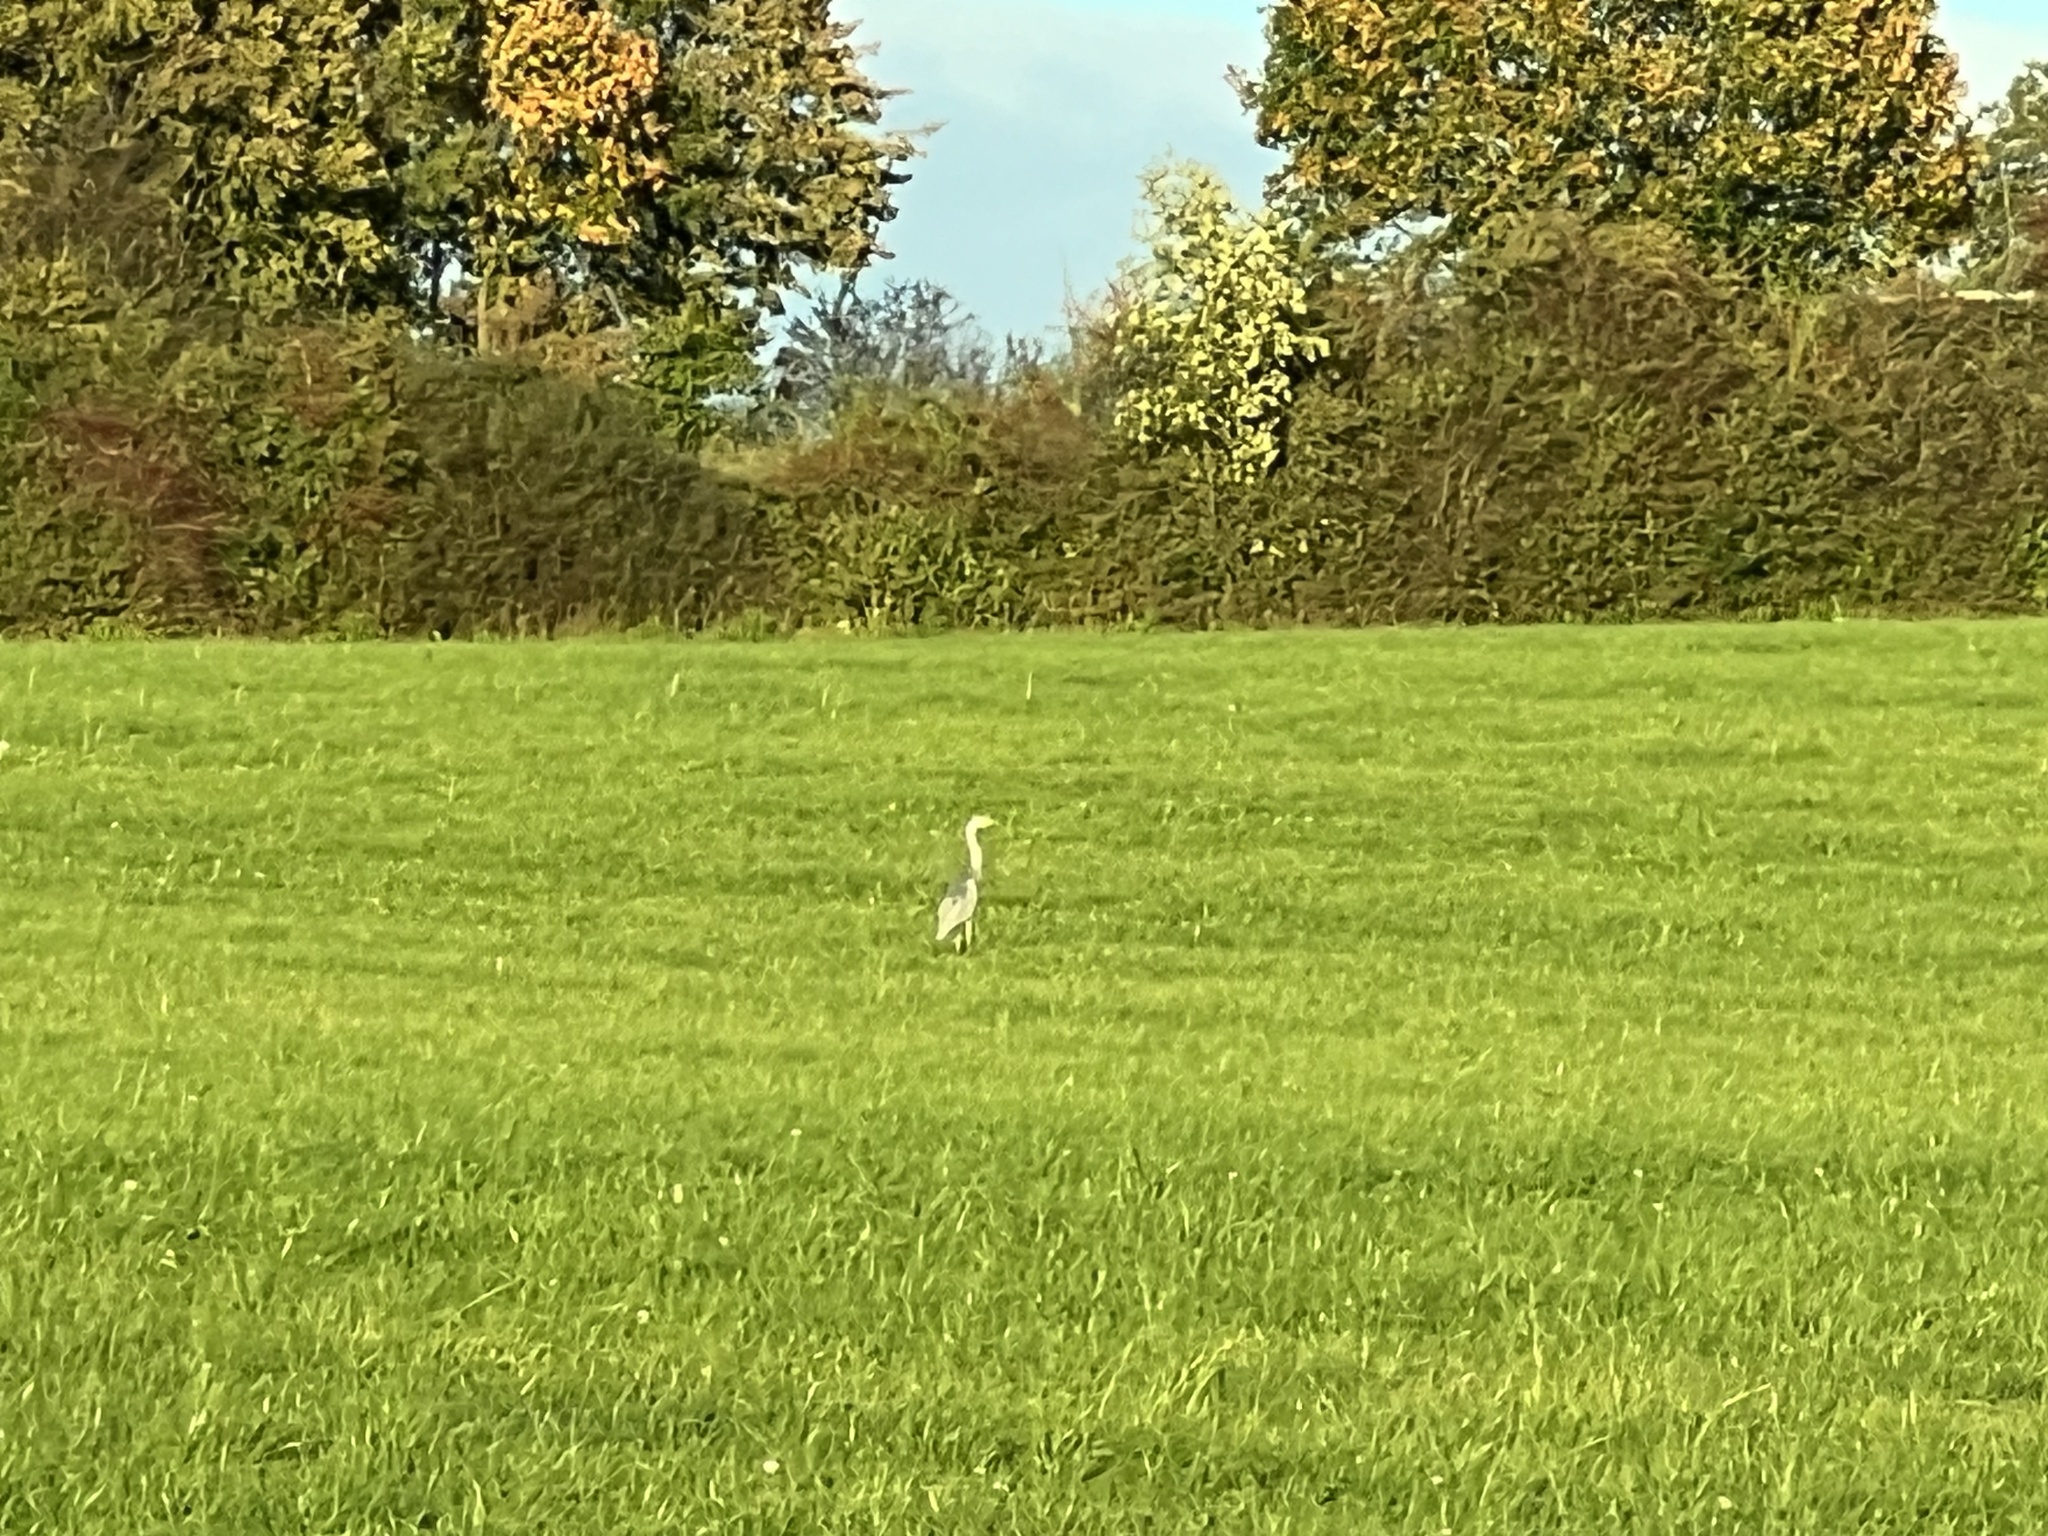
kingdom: Animalia
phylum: Chordata
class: Aves
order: Pelecaniformes
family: Ardeidae
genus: Ardea
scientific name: Ardea cinerea
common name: Grey heron
